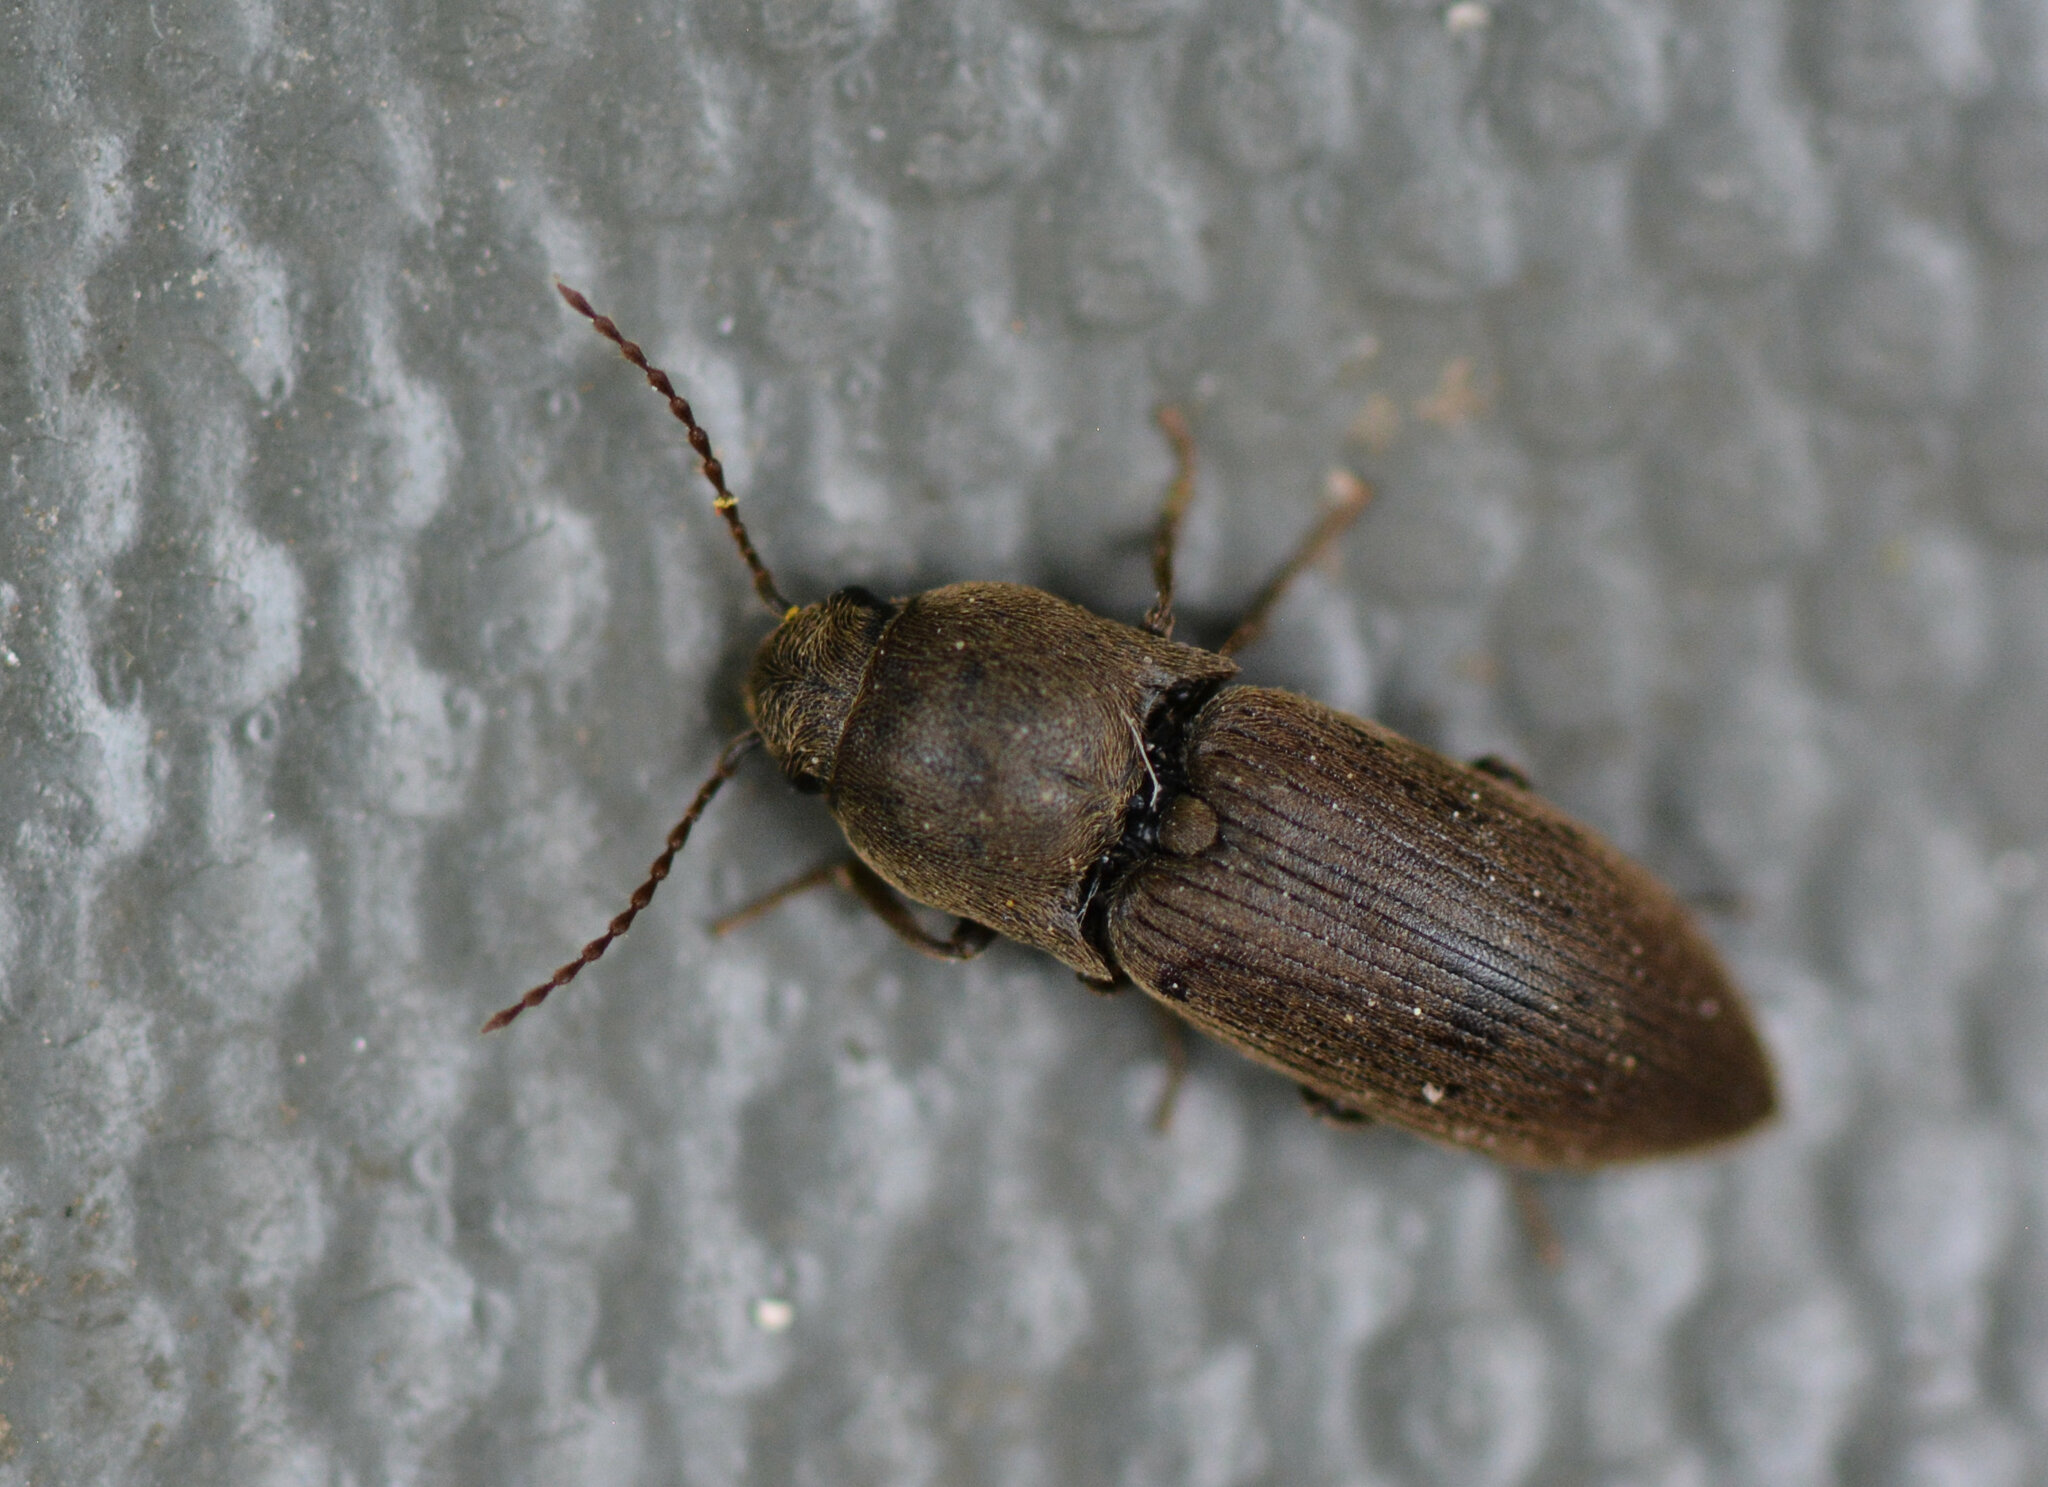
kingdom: Animalia
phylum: Arthropoda
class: Insecta
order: Coleoptera
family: Elateridae
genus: Agriotes
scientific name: Agriotes obscurus
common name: Dusky wireworm
